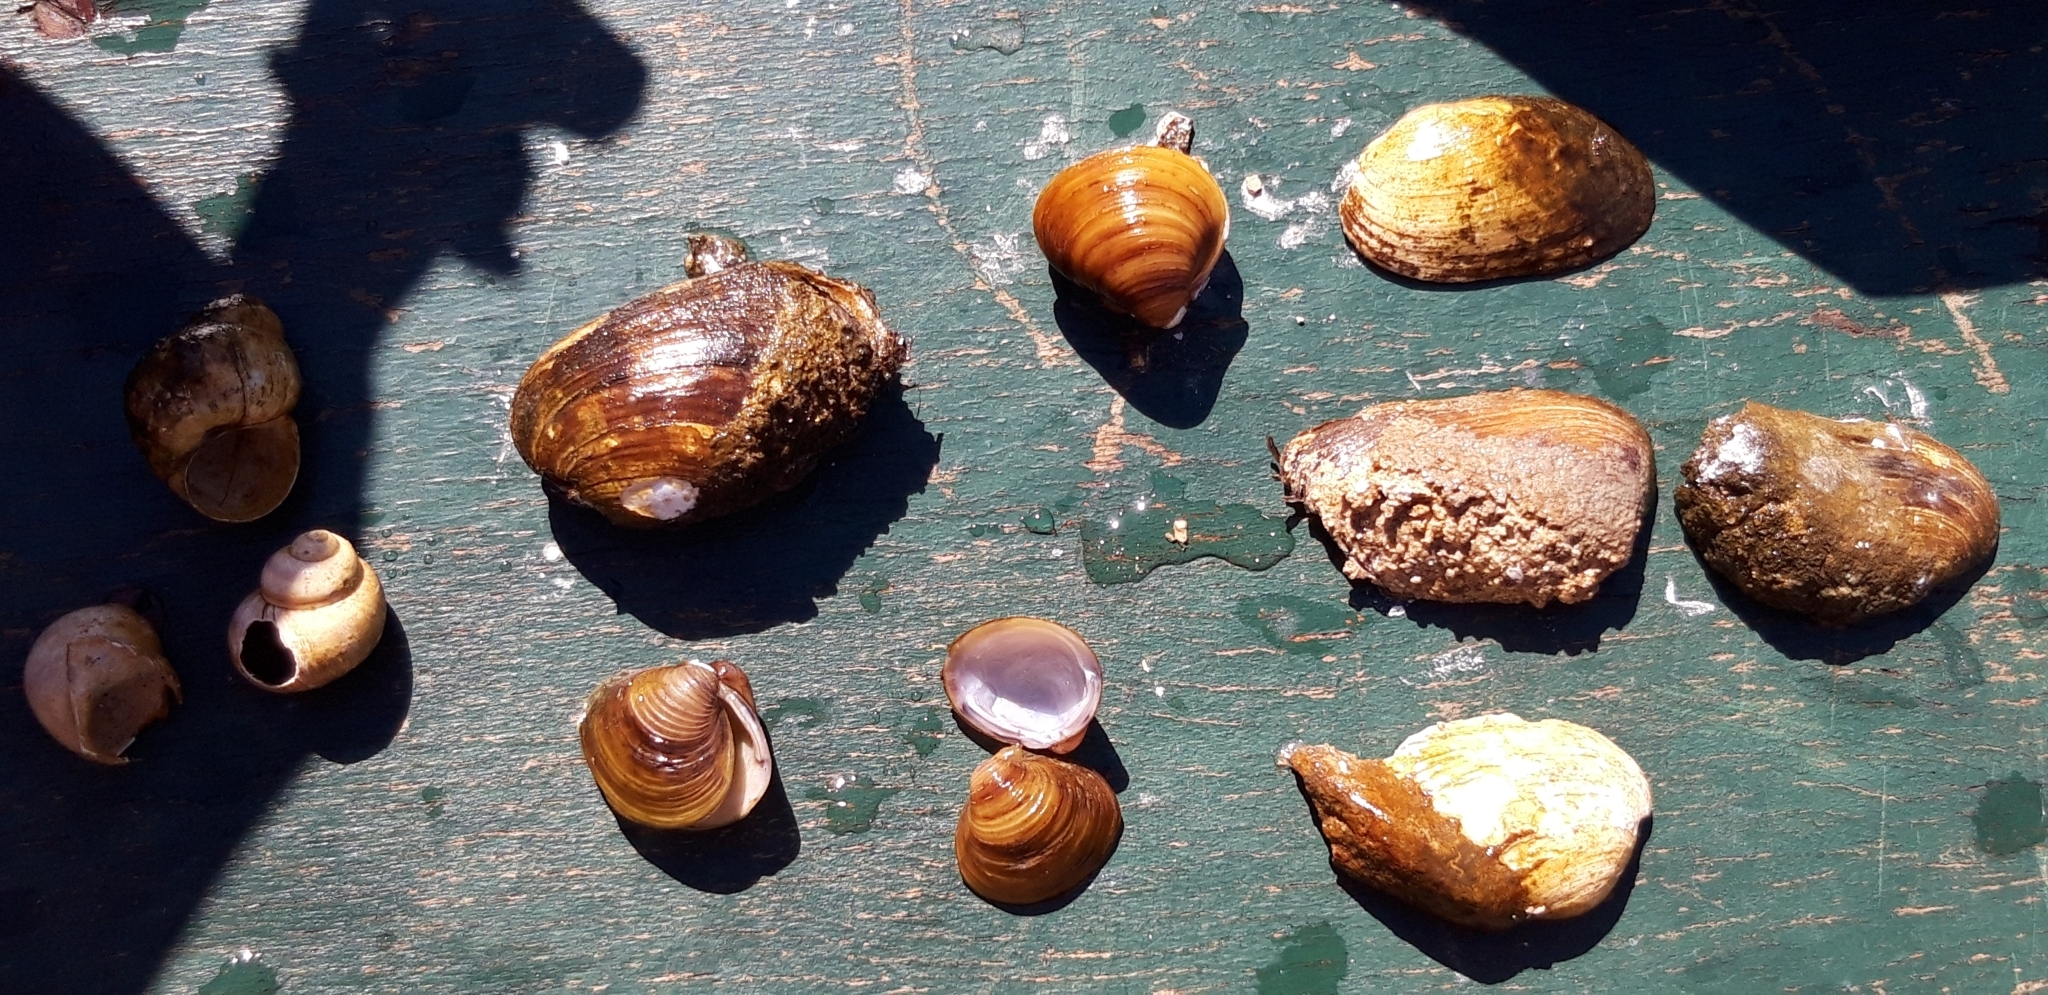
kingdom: Animalia
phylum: Mollusca
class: Bivalvia
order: Venerida
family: Cyrenidae
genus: Corbicula
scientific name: Corbicula fluminea
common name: Asian clam
